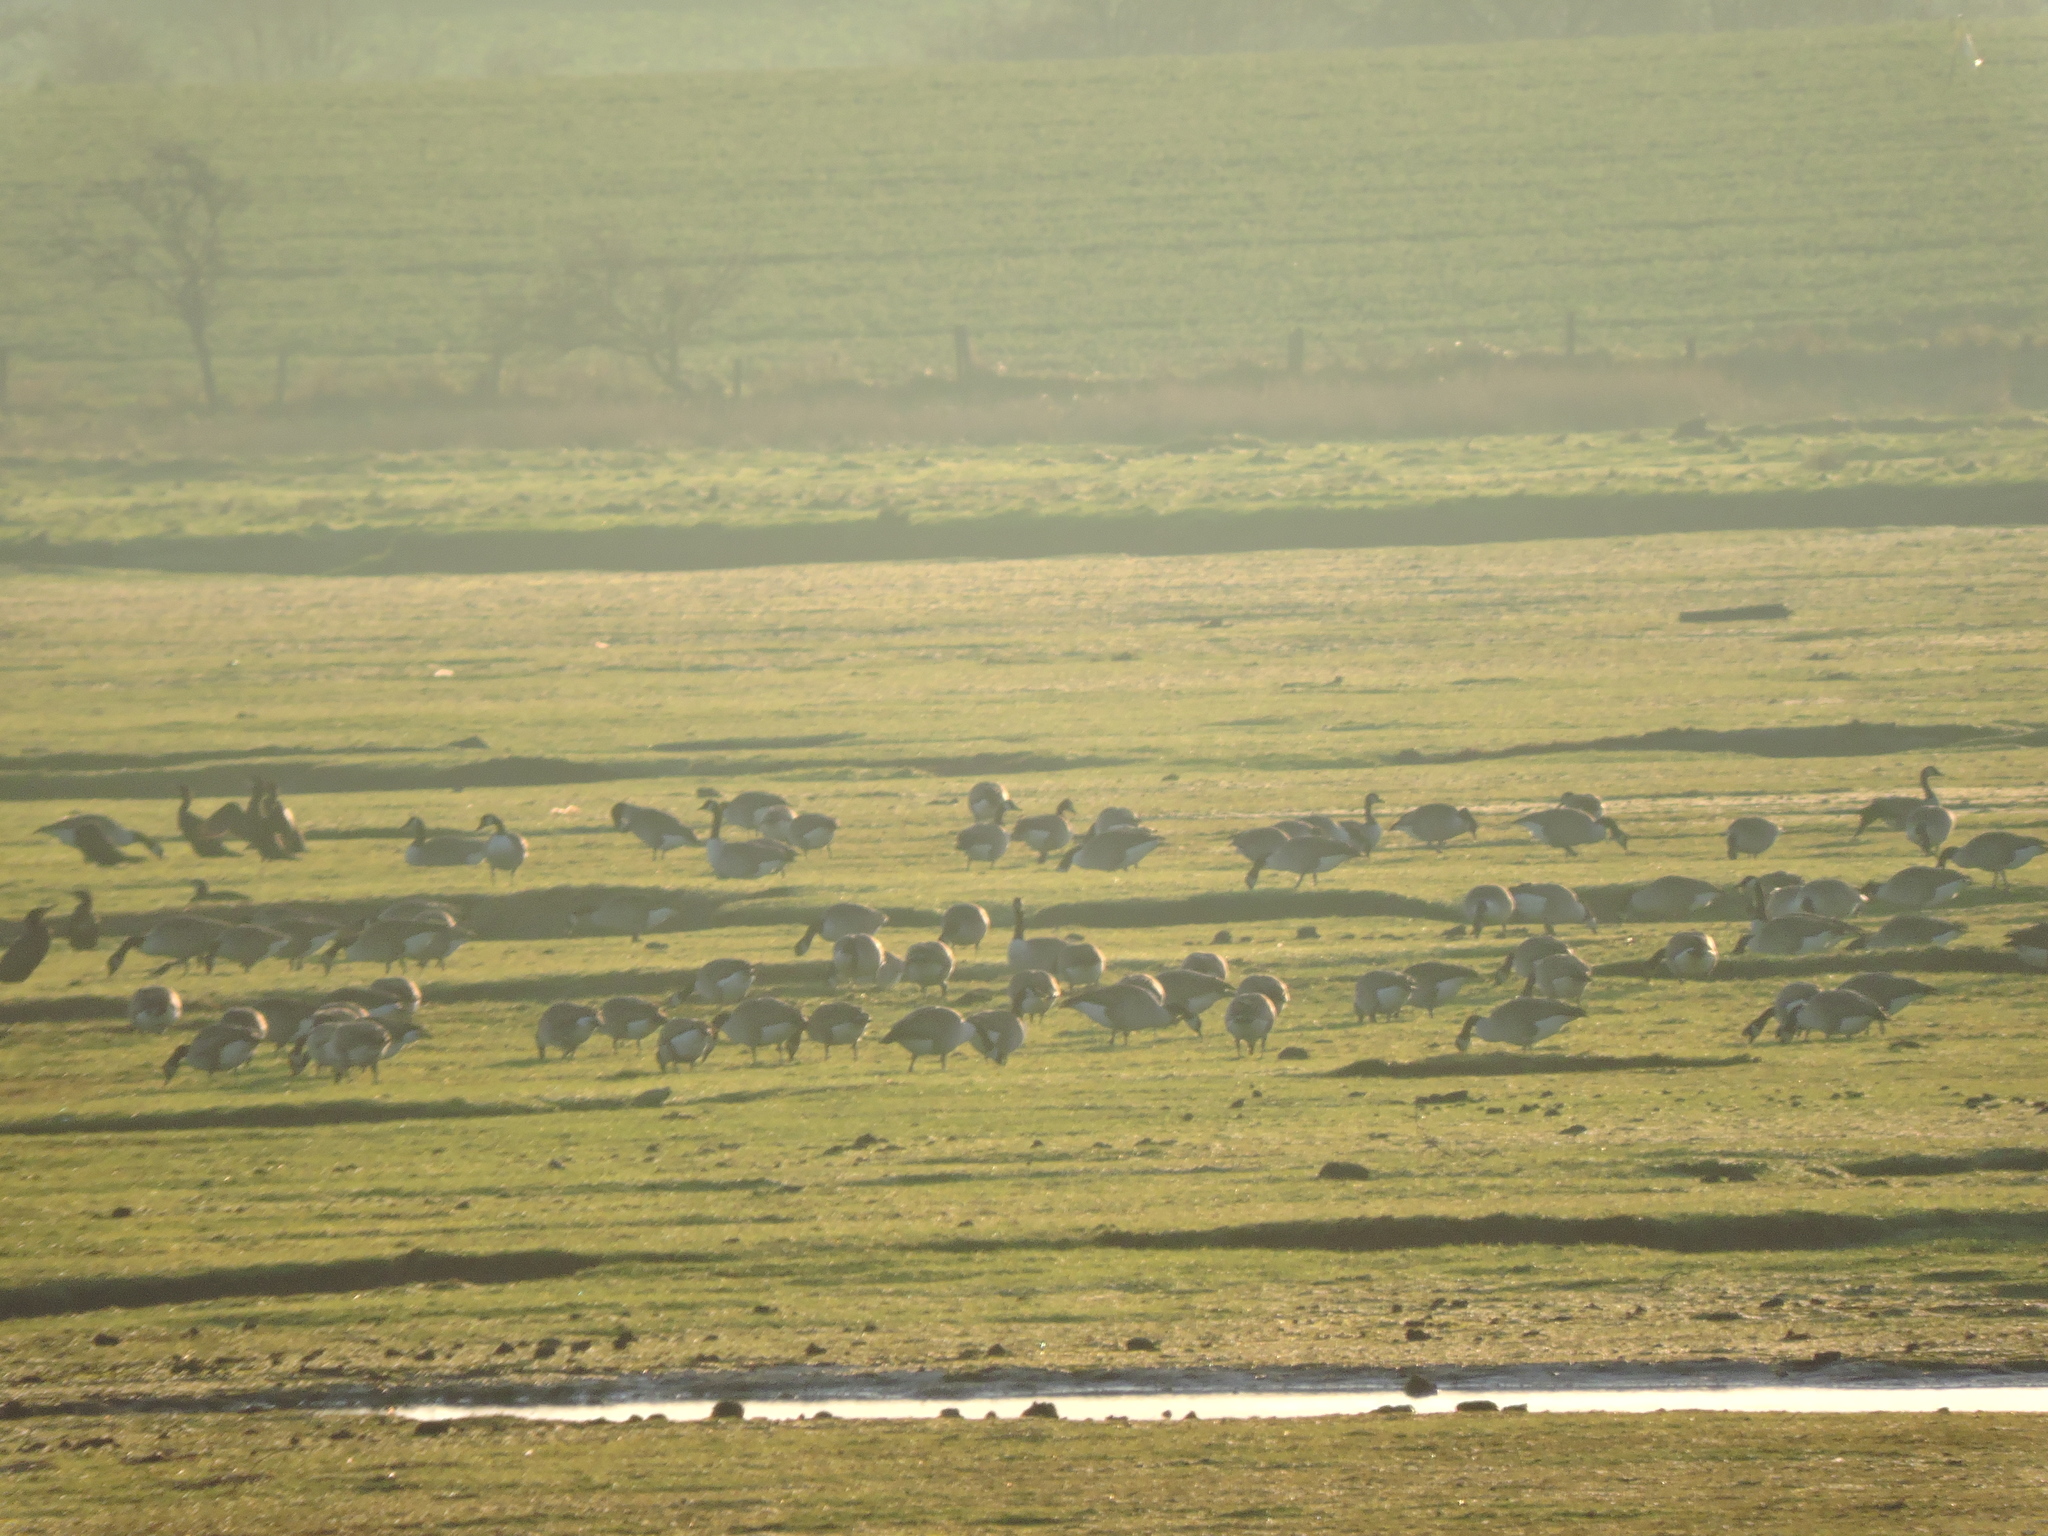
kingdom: Animalia
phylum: Chordata
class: Aves
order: Anseriformes
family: Anatidae
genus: Branta
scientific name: Branta canadensis
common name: Canada goose
